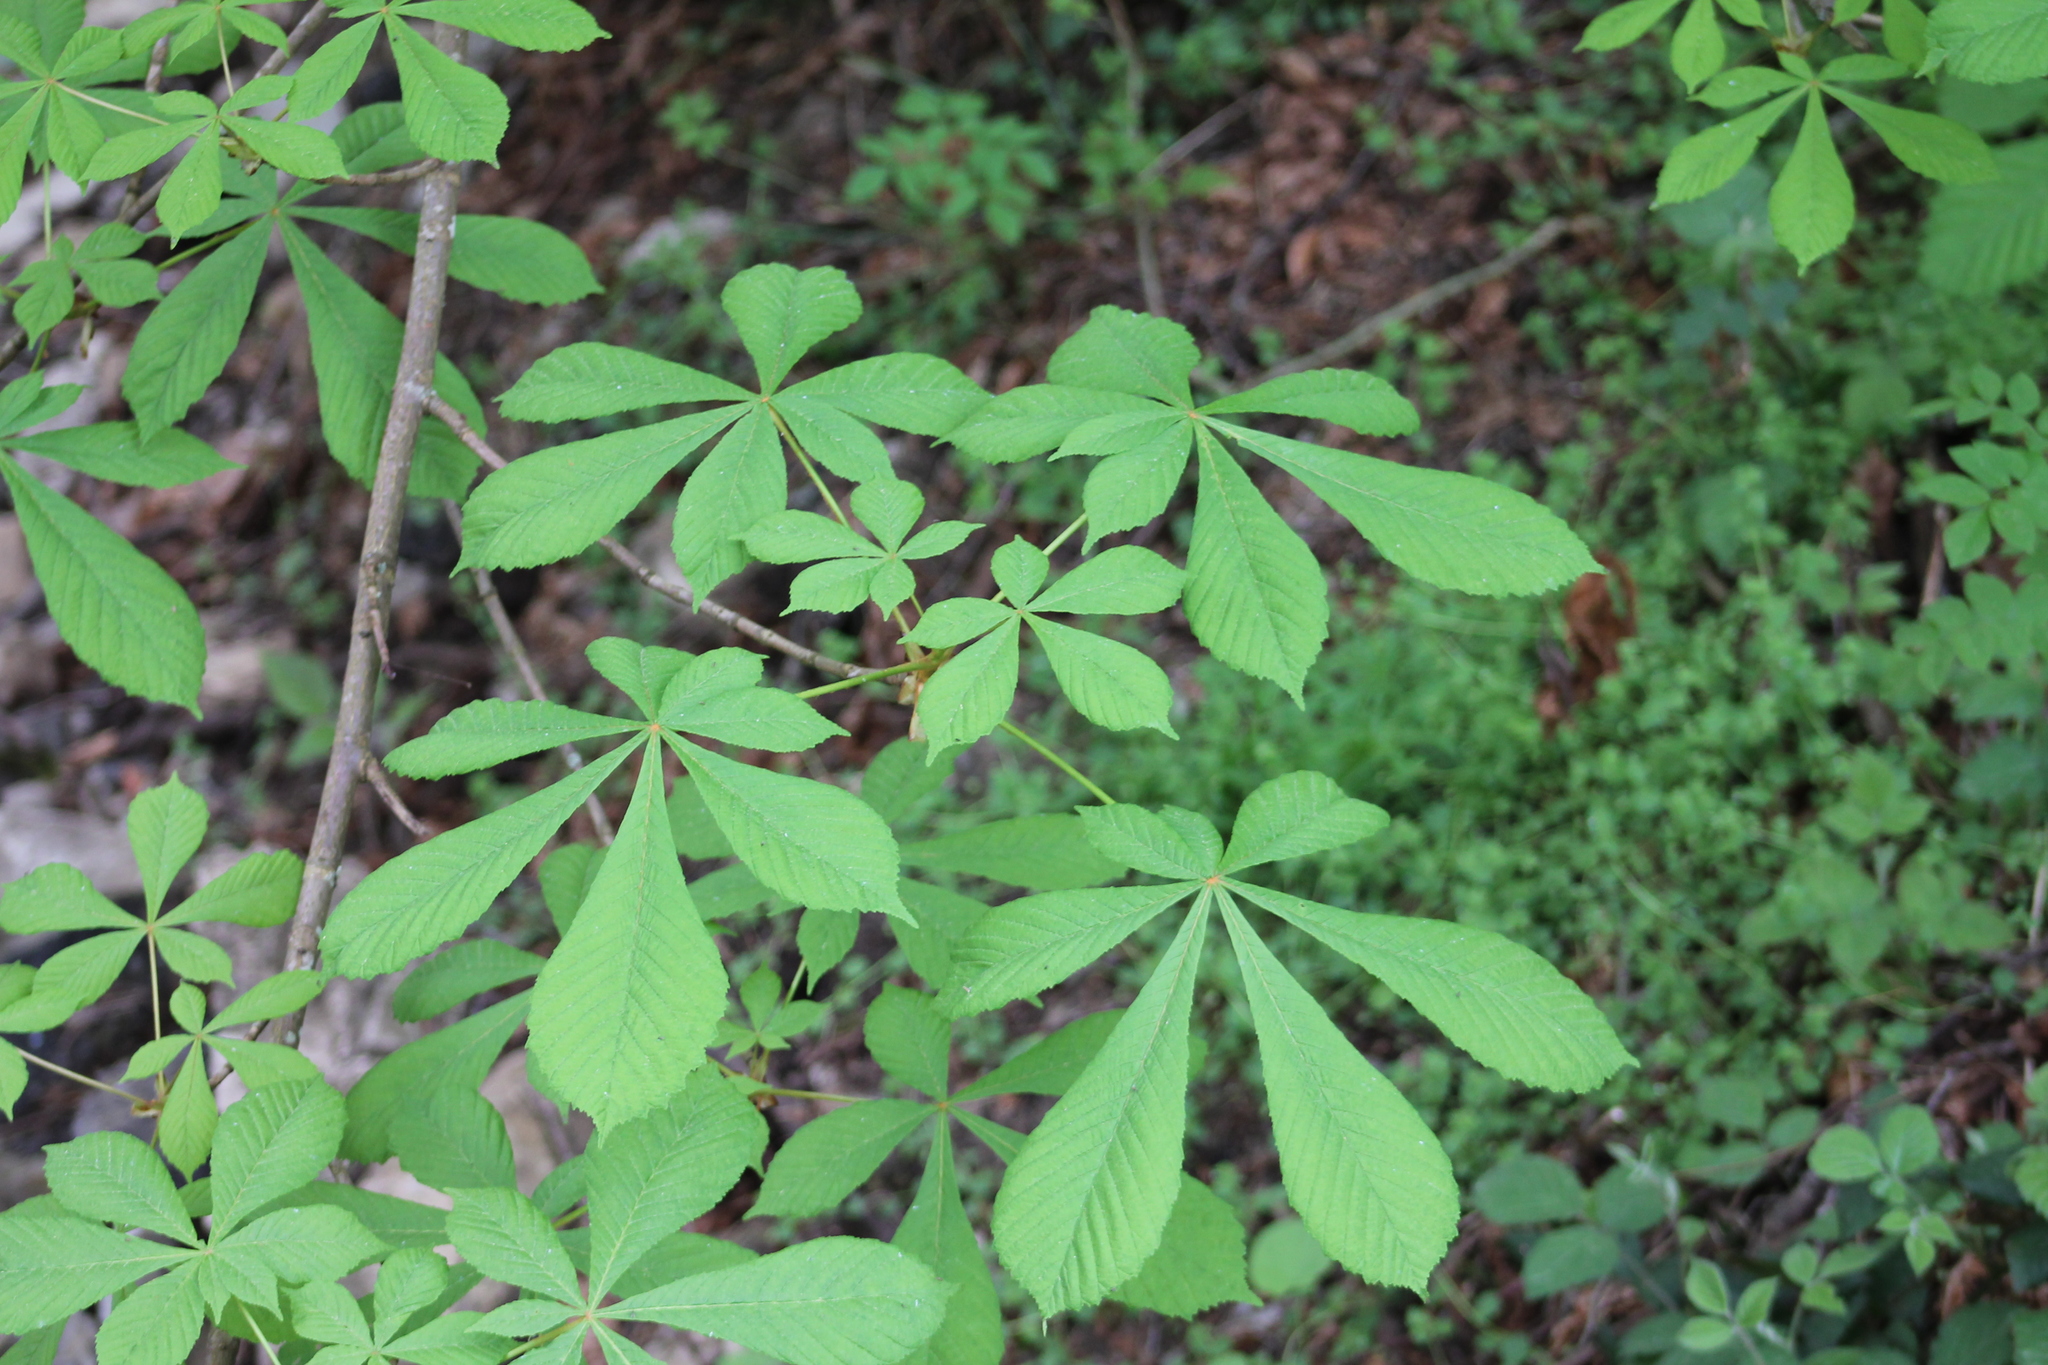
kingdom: Plantae
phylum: Tracheophyta
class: Magnoliopsida
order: Sapindales
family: Sapindaceae
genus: Aesculus
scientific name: Aesculus hippocastanum
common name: Horse-chestnut
